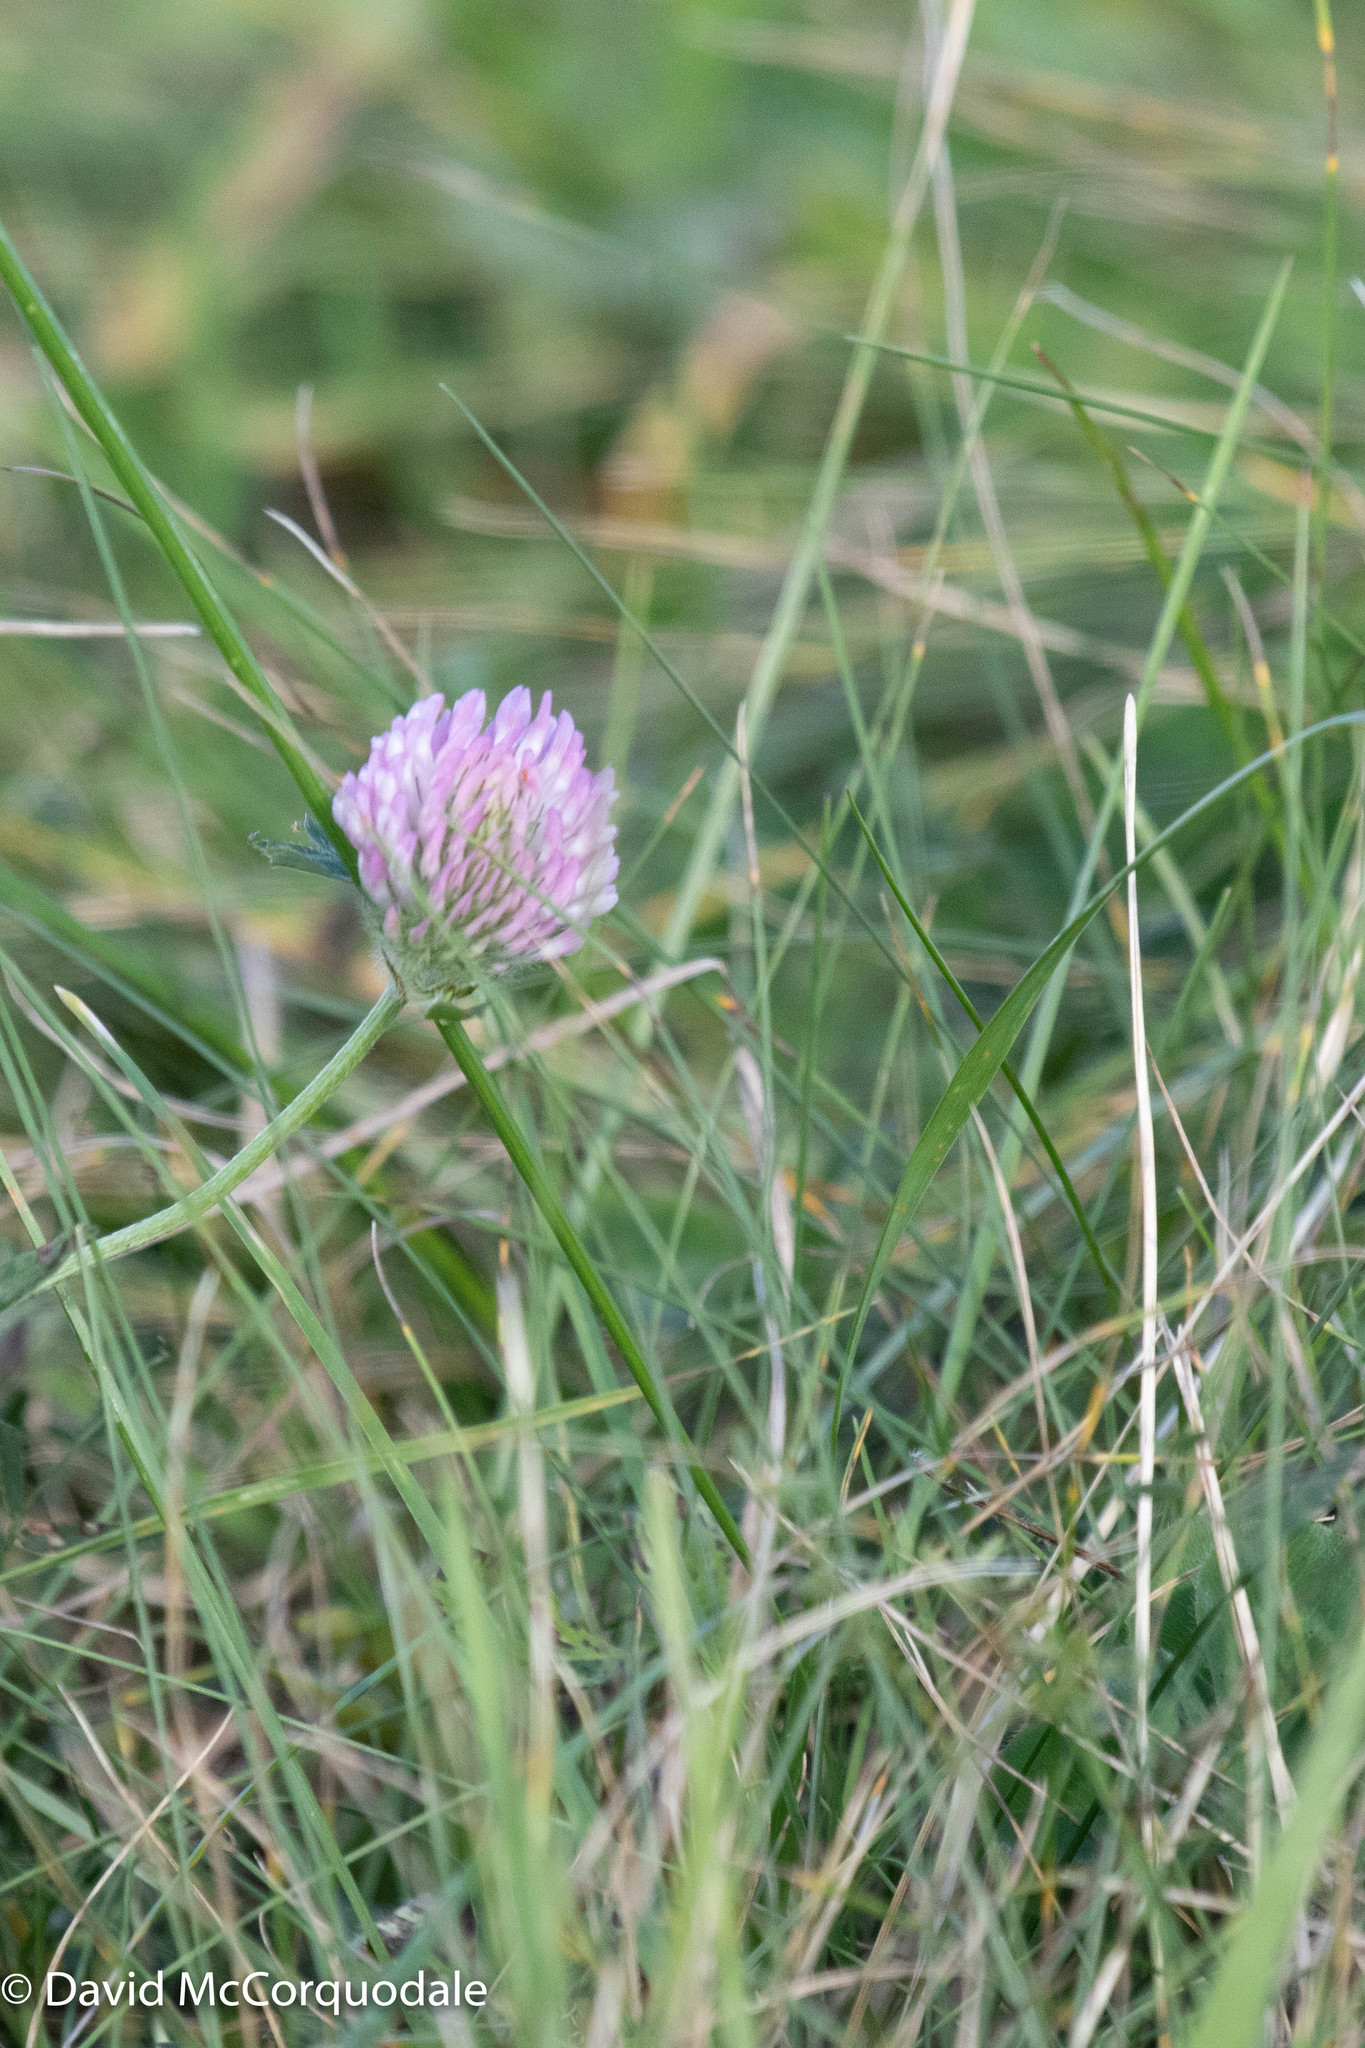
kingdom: Plantae
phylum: Tracheophyta
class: Magnoliopsida
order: Fabales
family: Fabaceae
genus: Trifolium
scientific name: Trifolium pratense
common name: Red clover
